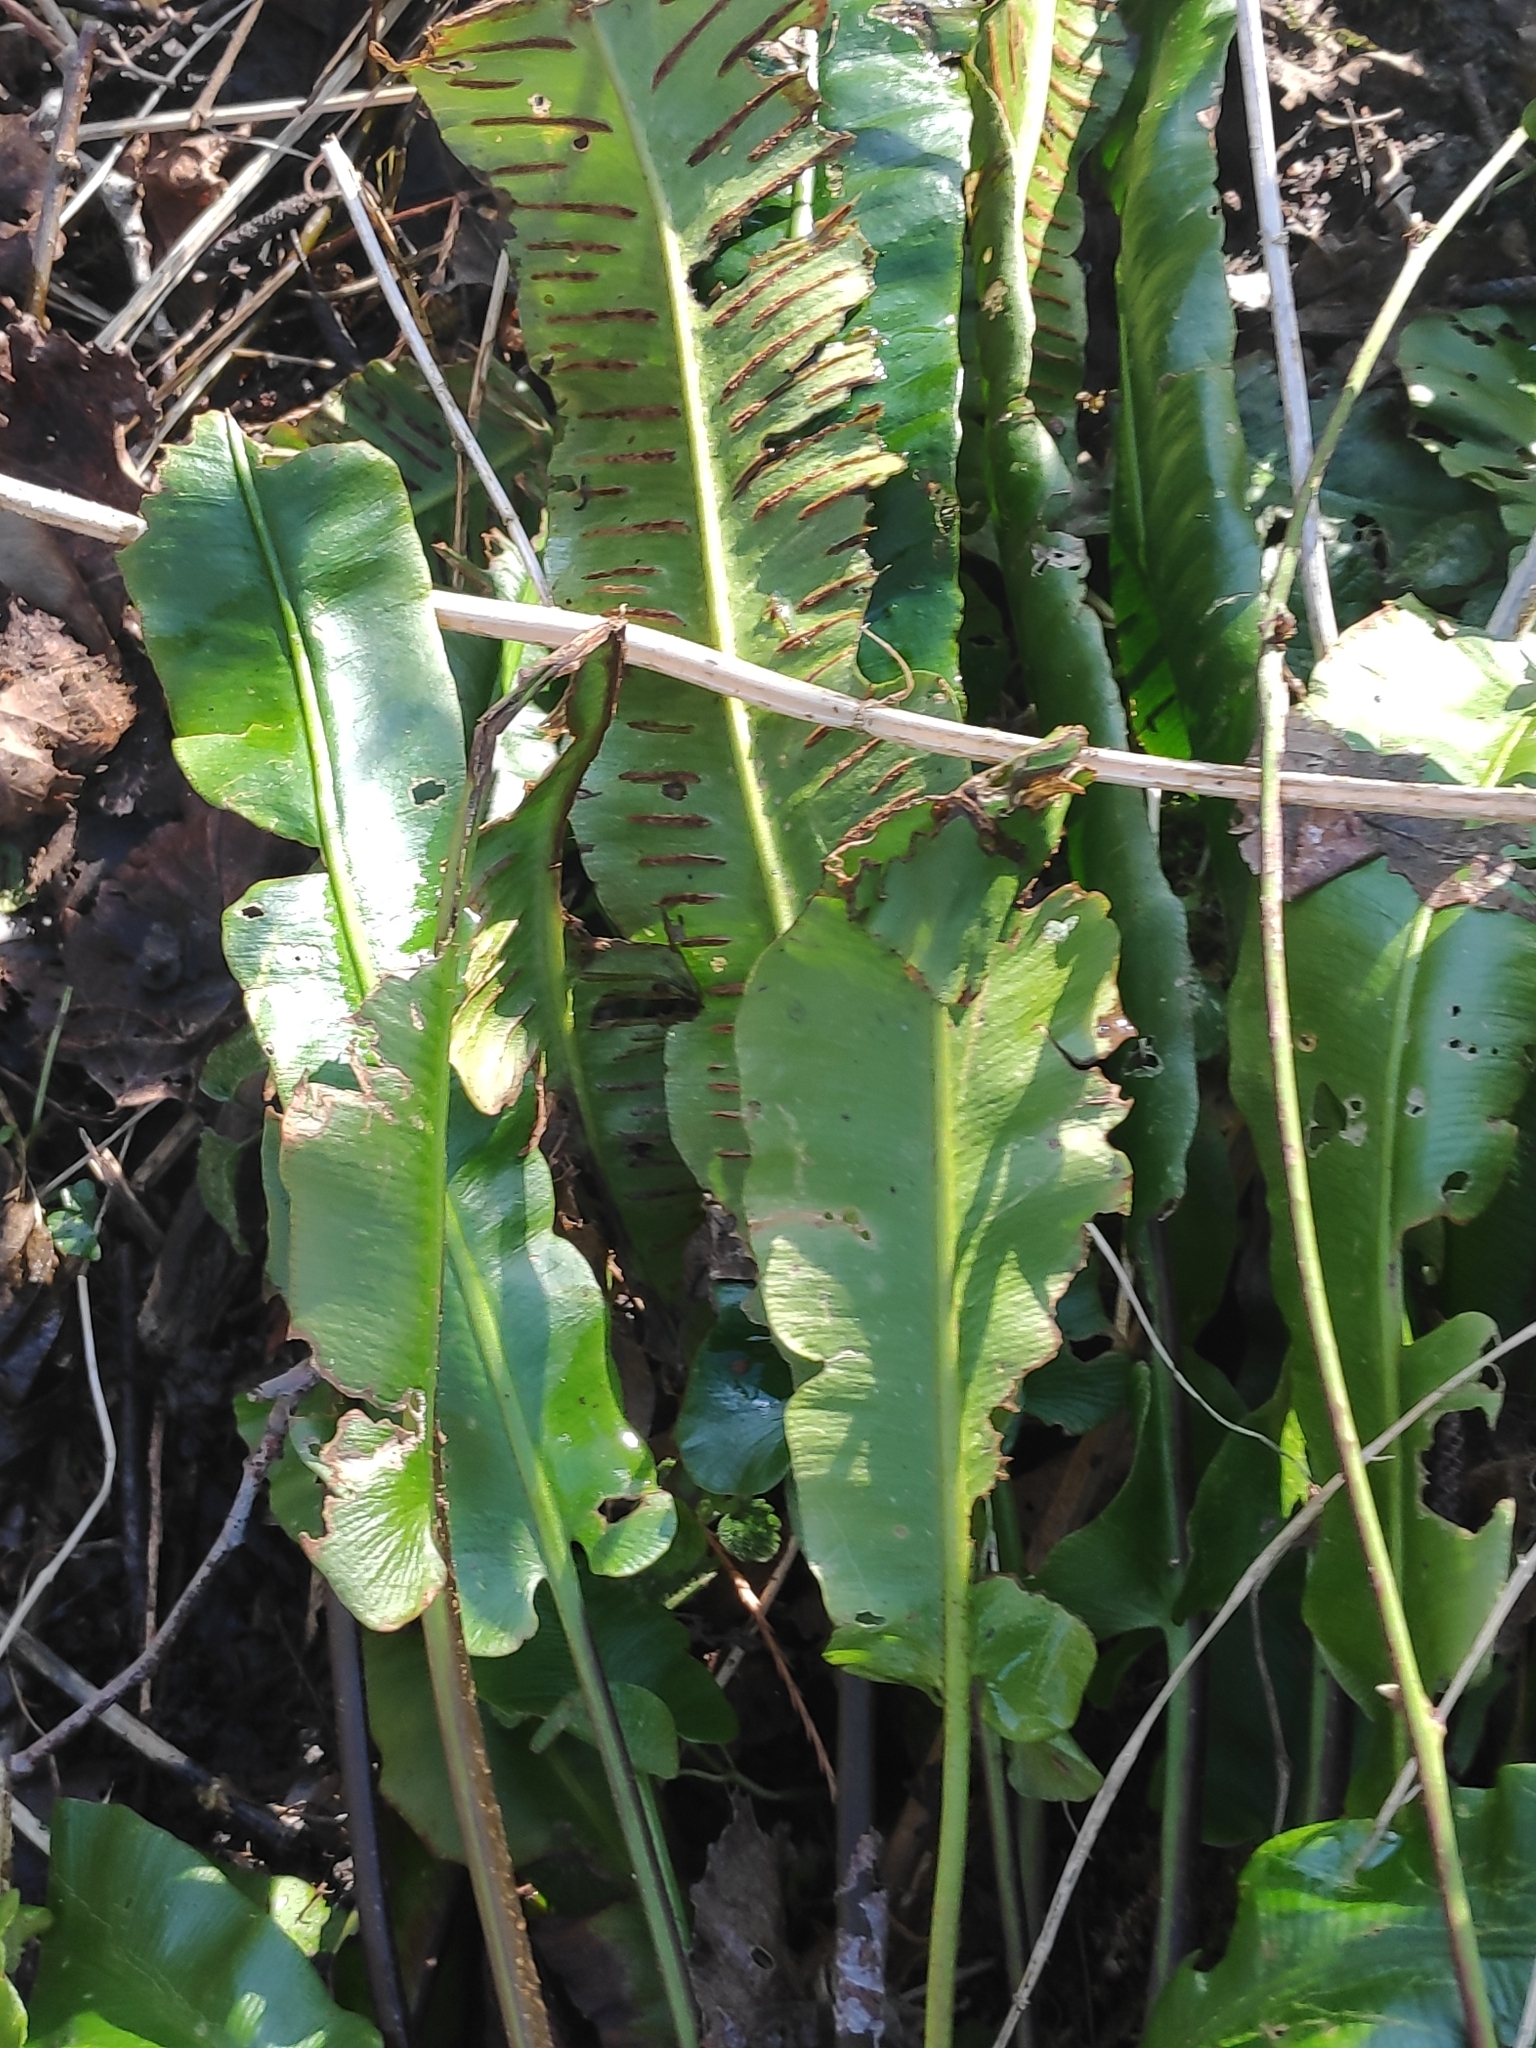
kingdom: Plantae
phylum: Tracheophyta
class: Polypodiopsida
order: Polypodiales
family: Aspleniaceae
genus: Asplenium
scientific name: Asplenium scolopendrium
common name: Hart's-tongue fern
